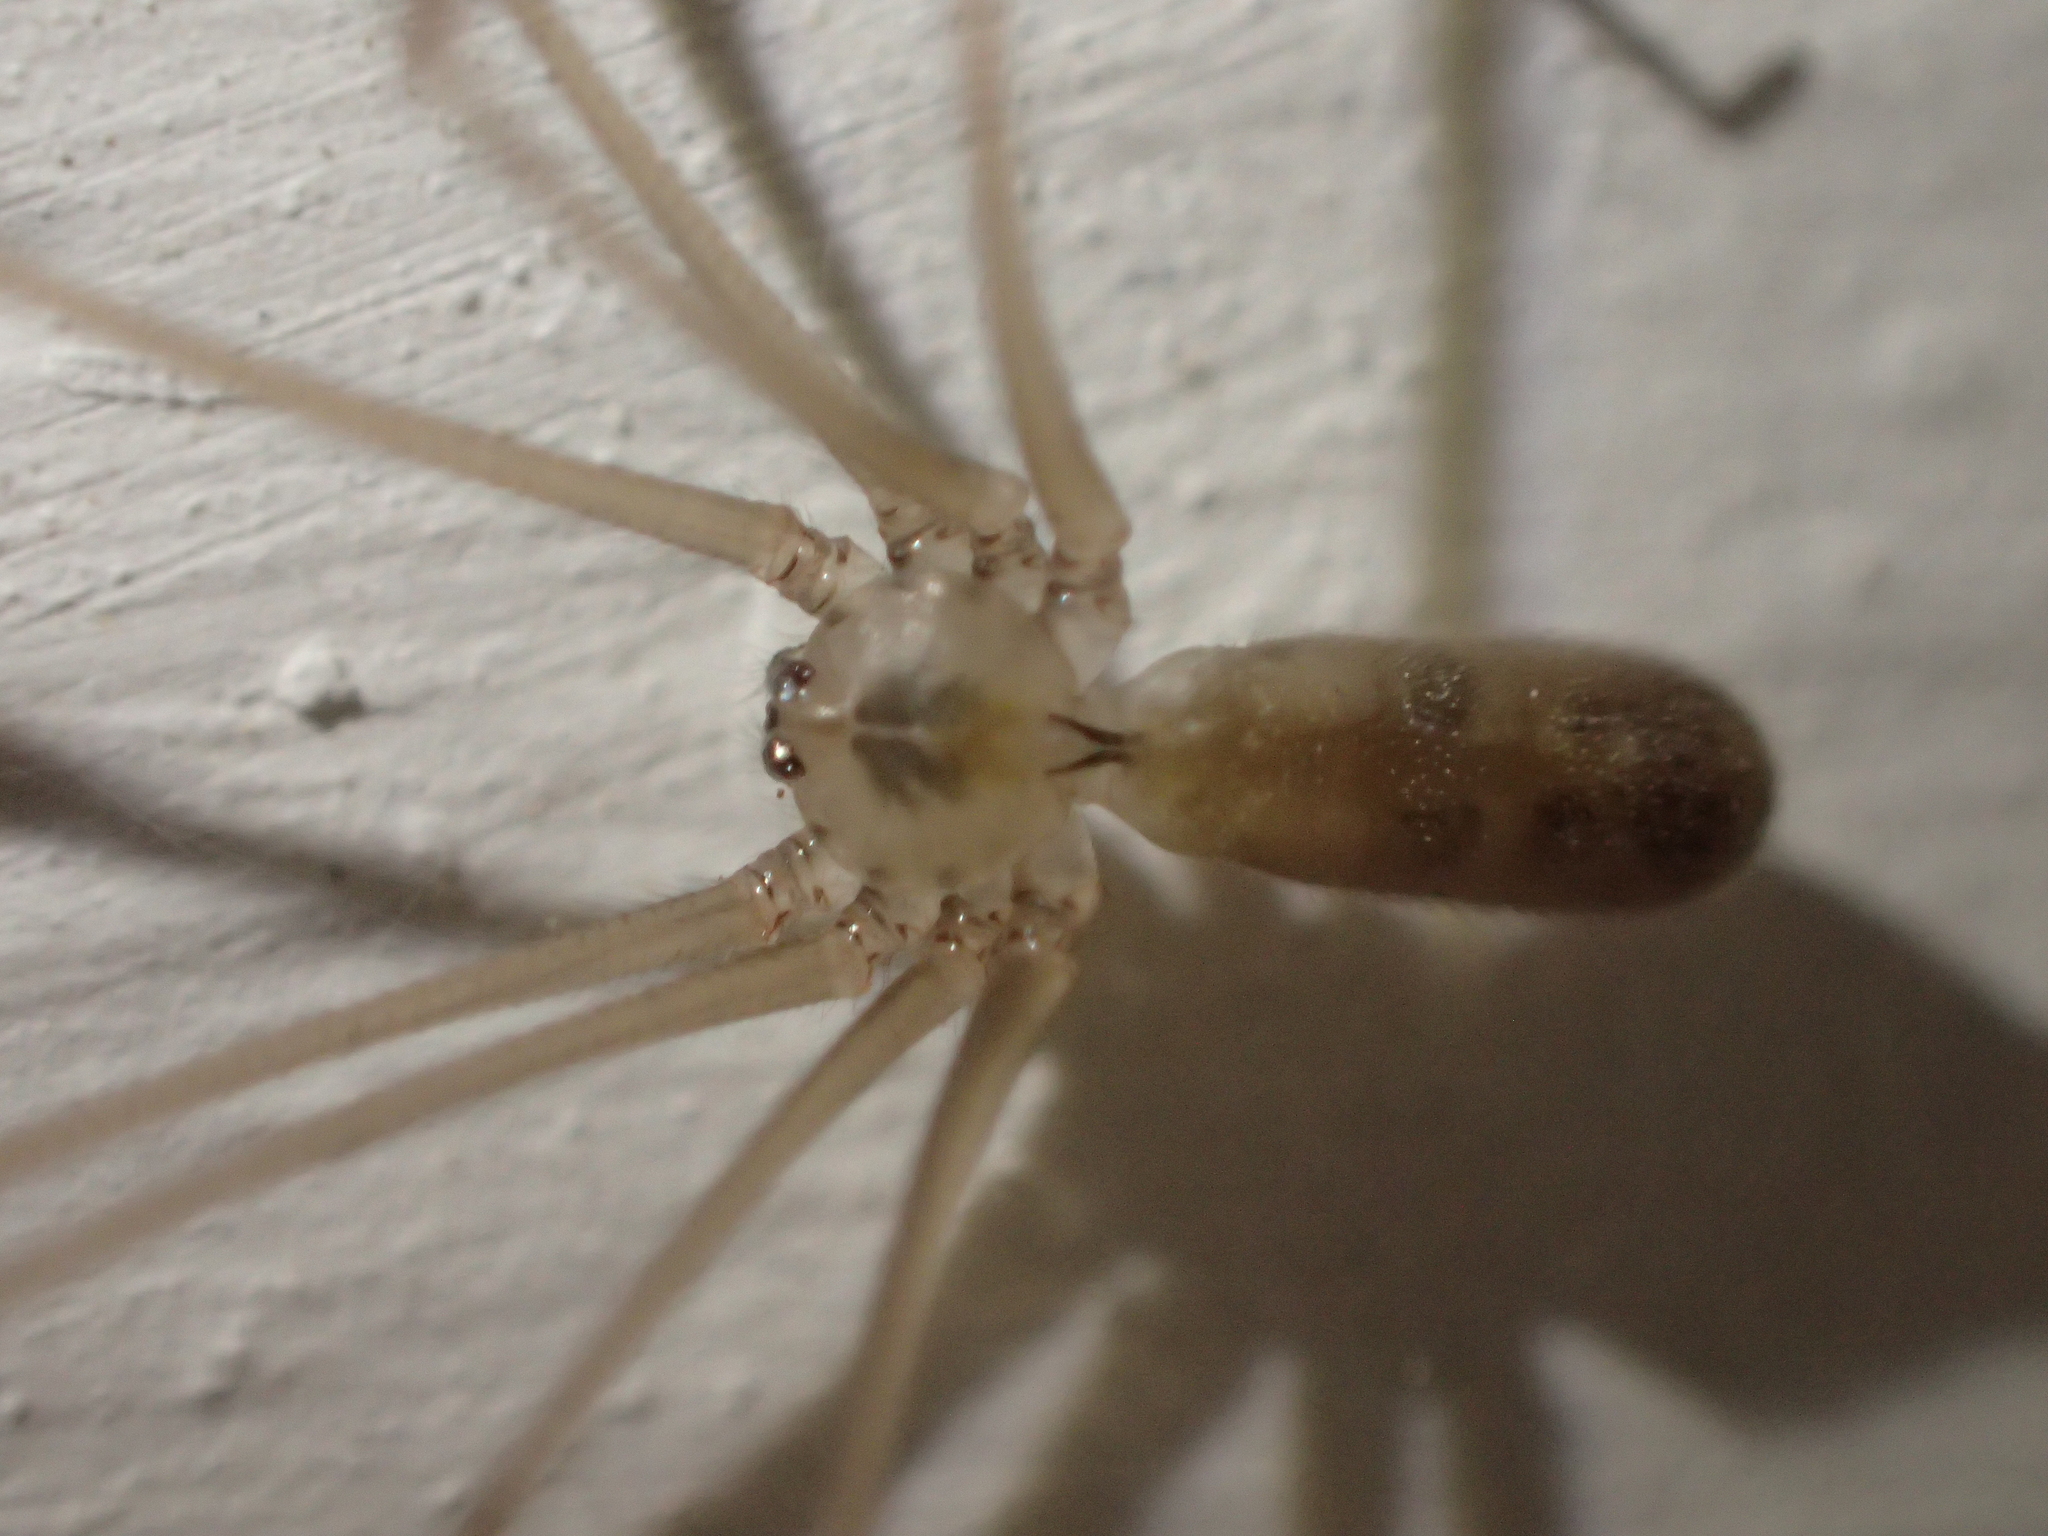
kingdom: Animalia
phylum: Arthropoda
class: Arachnida
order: Araneae
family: Pholcidae
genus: Pholcus
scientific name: Pholcus phalangioides
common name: Longbodied cellar spider
